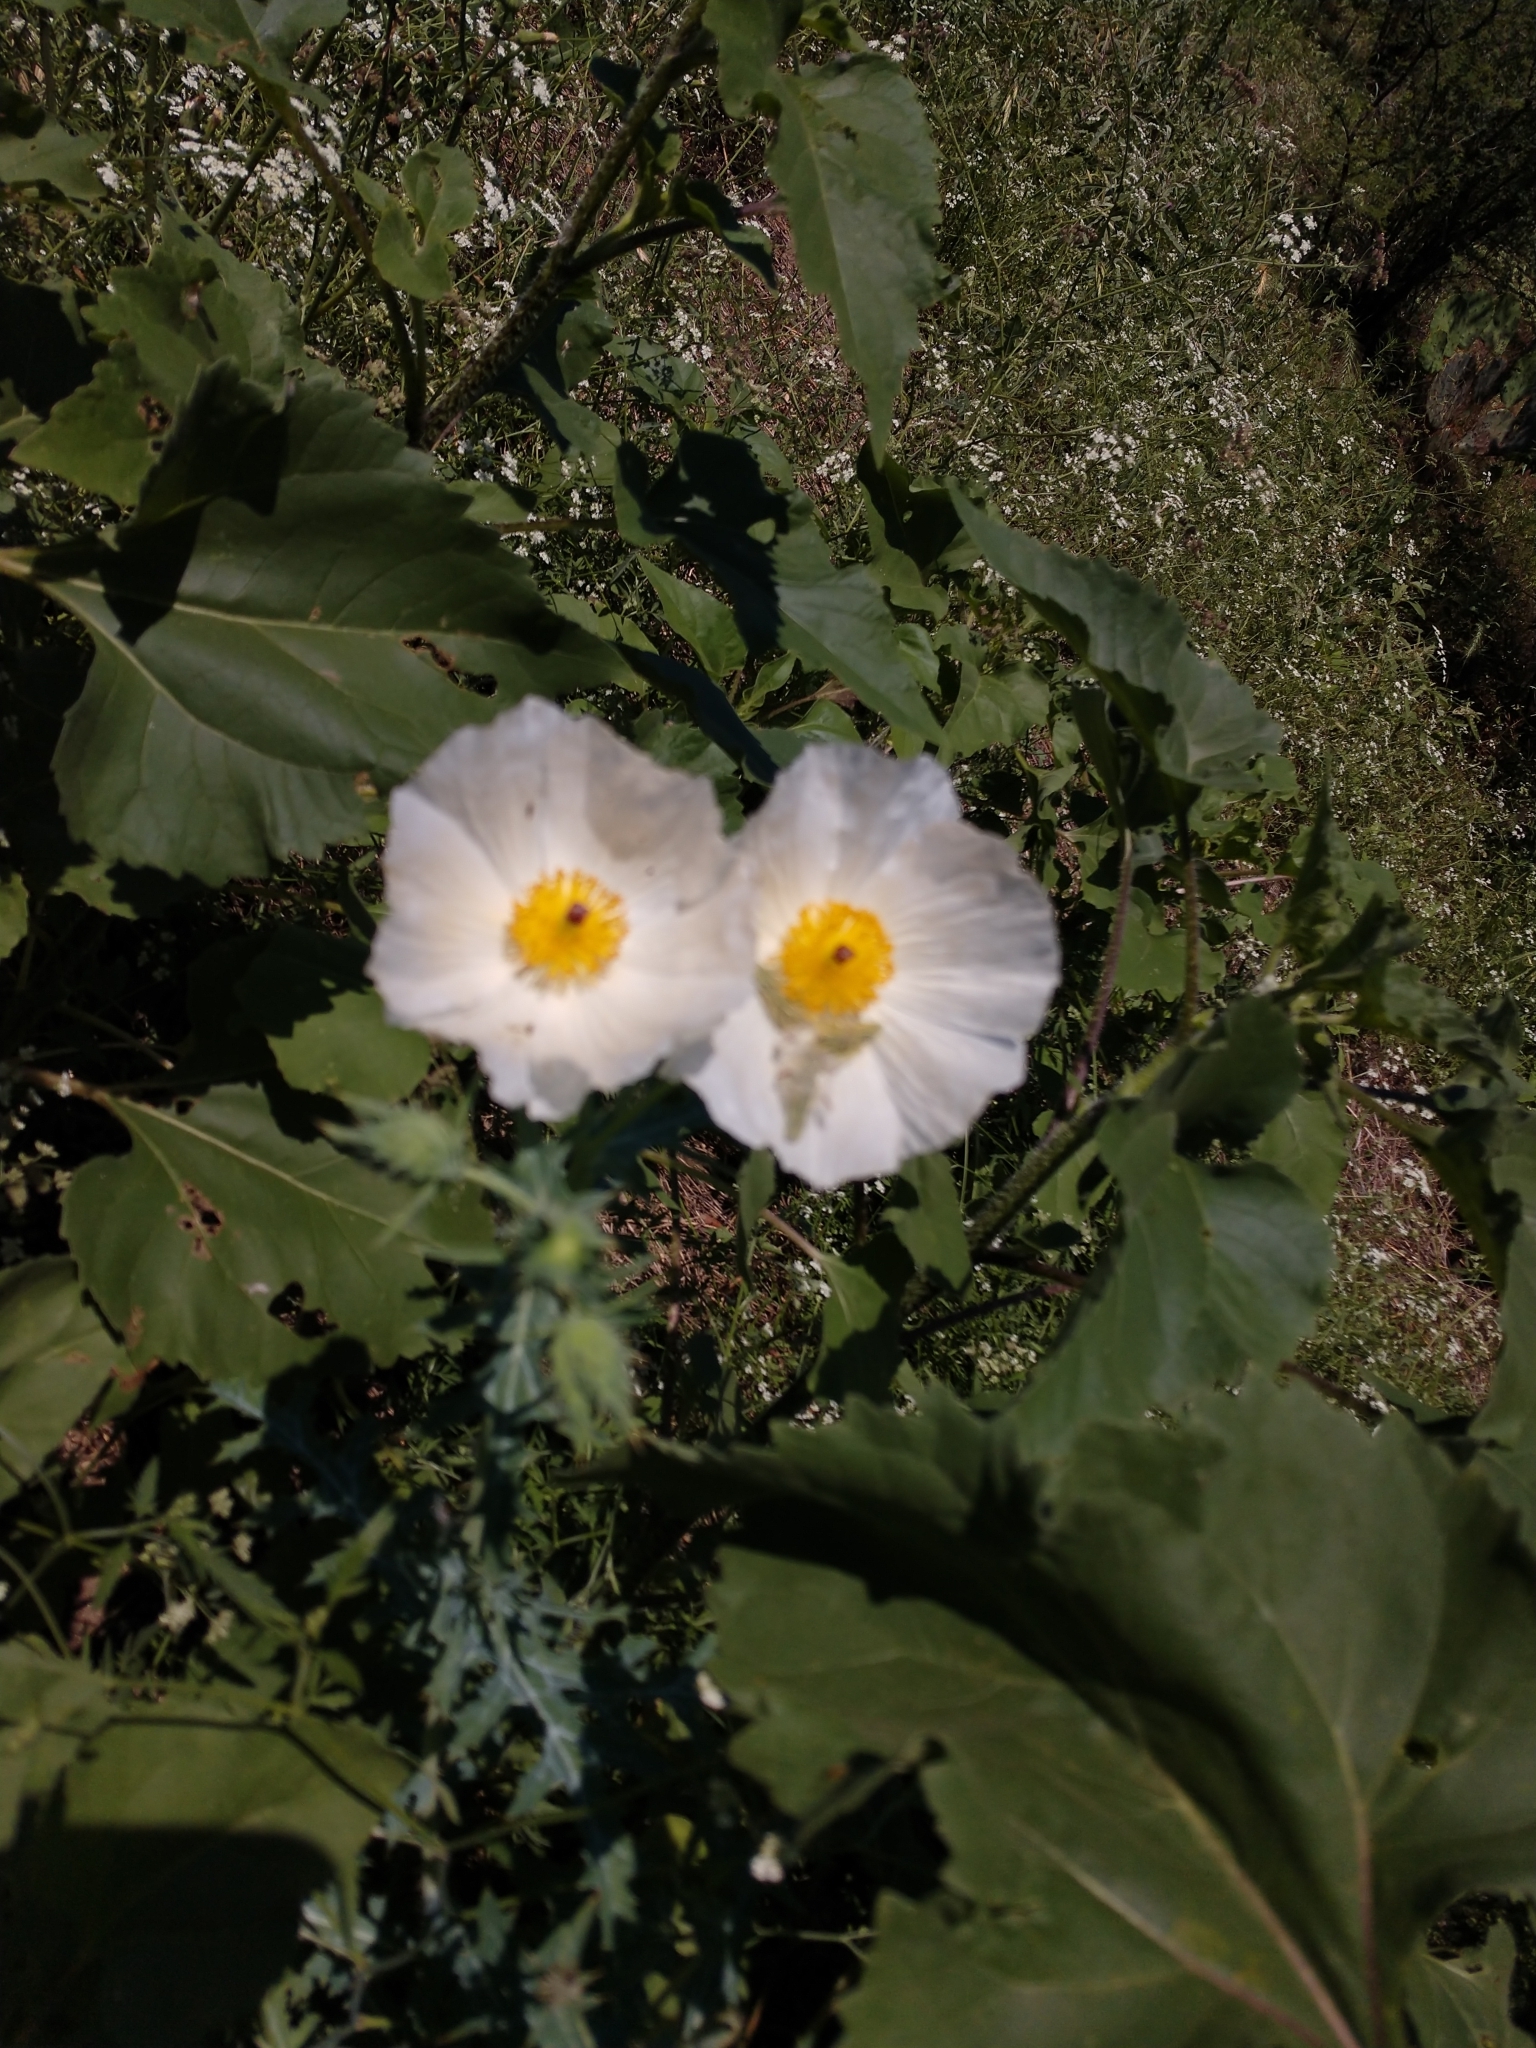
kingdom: Plantae
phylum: Tracheophyta
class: Magnoliopsida
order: Ranunculales
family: Papaveraceae
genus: Argemone
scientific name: Argemone albiflora
